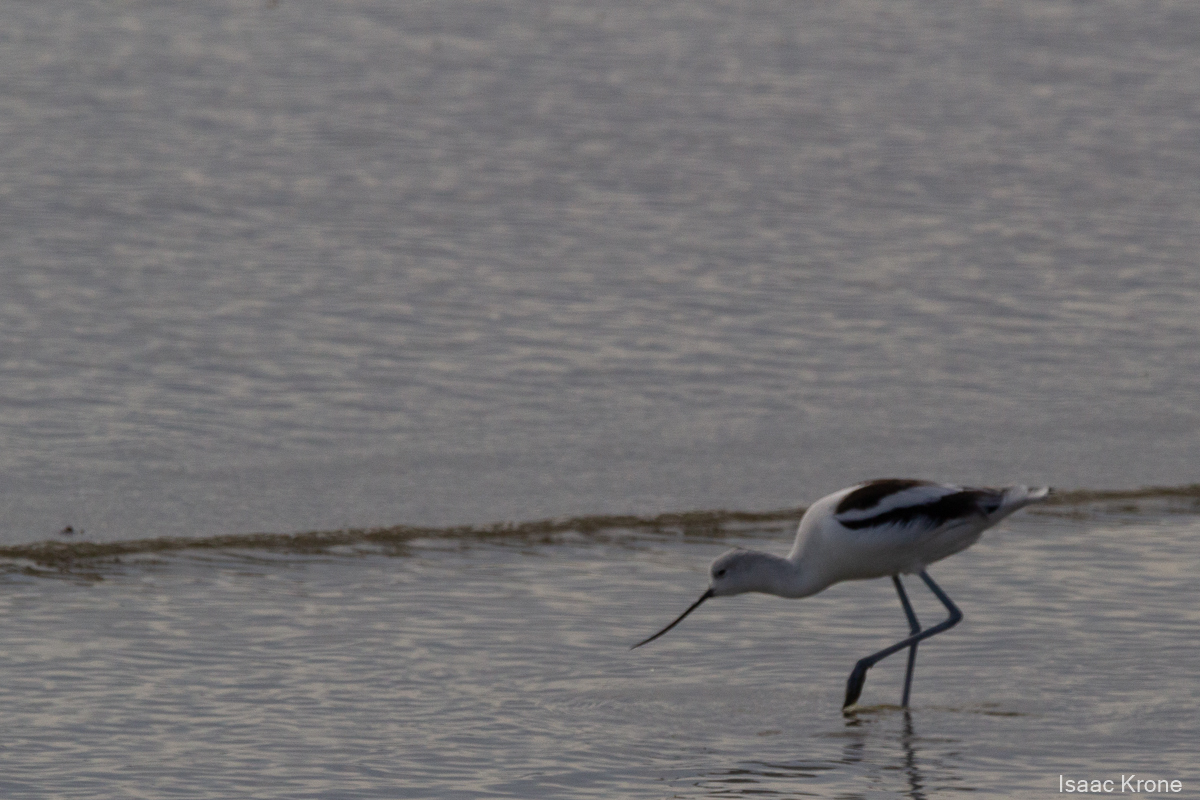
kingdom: Animalia
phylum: Chordata
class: Aves
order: Charadriiformes
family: Recurvirostridae
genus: Recurvirostra
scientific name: Recurvirostra americana
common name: American avocet
